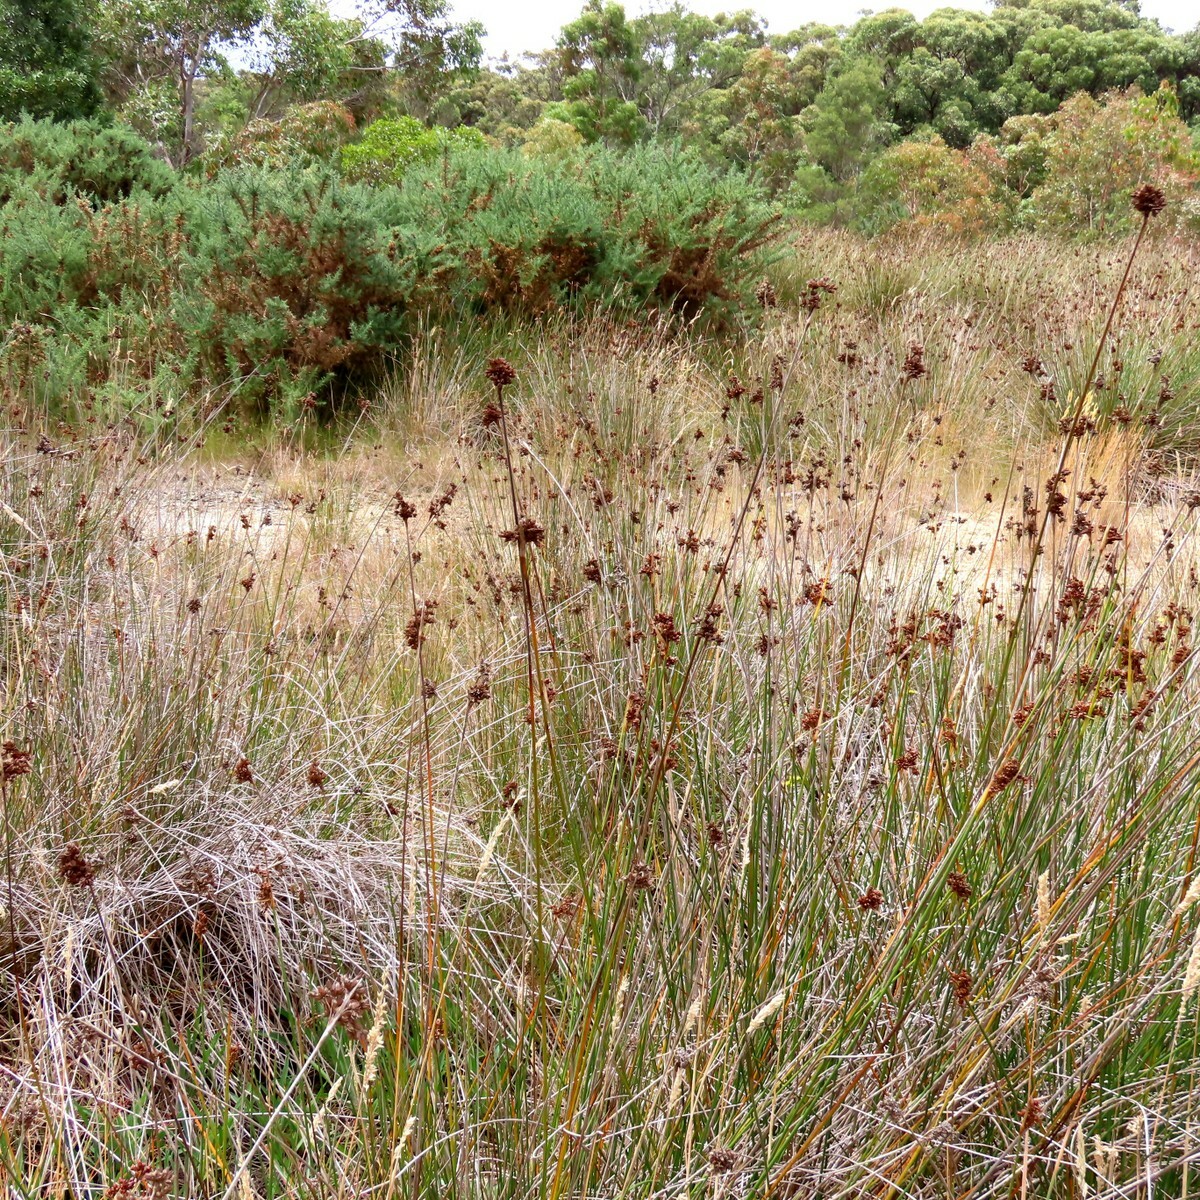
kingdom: Plantae
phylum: Tracheophyta
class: Liliopsida
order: Poales
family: Juncaceae
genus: Juncus
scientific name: Juncus acutus
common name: Sharp rush
